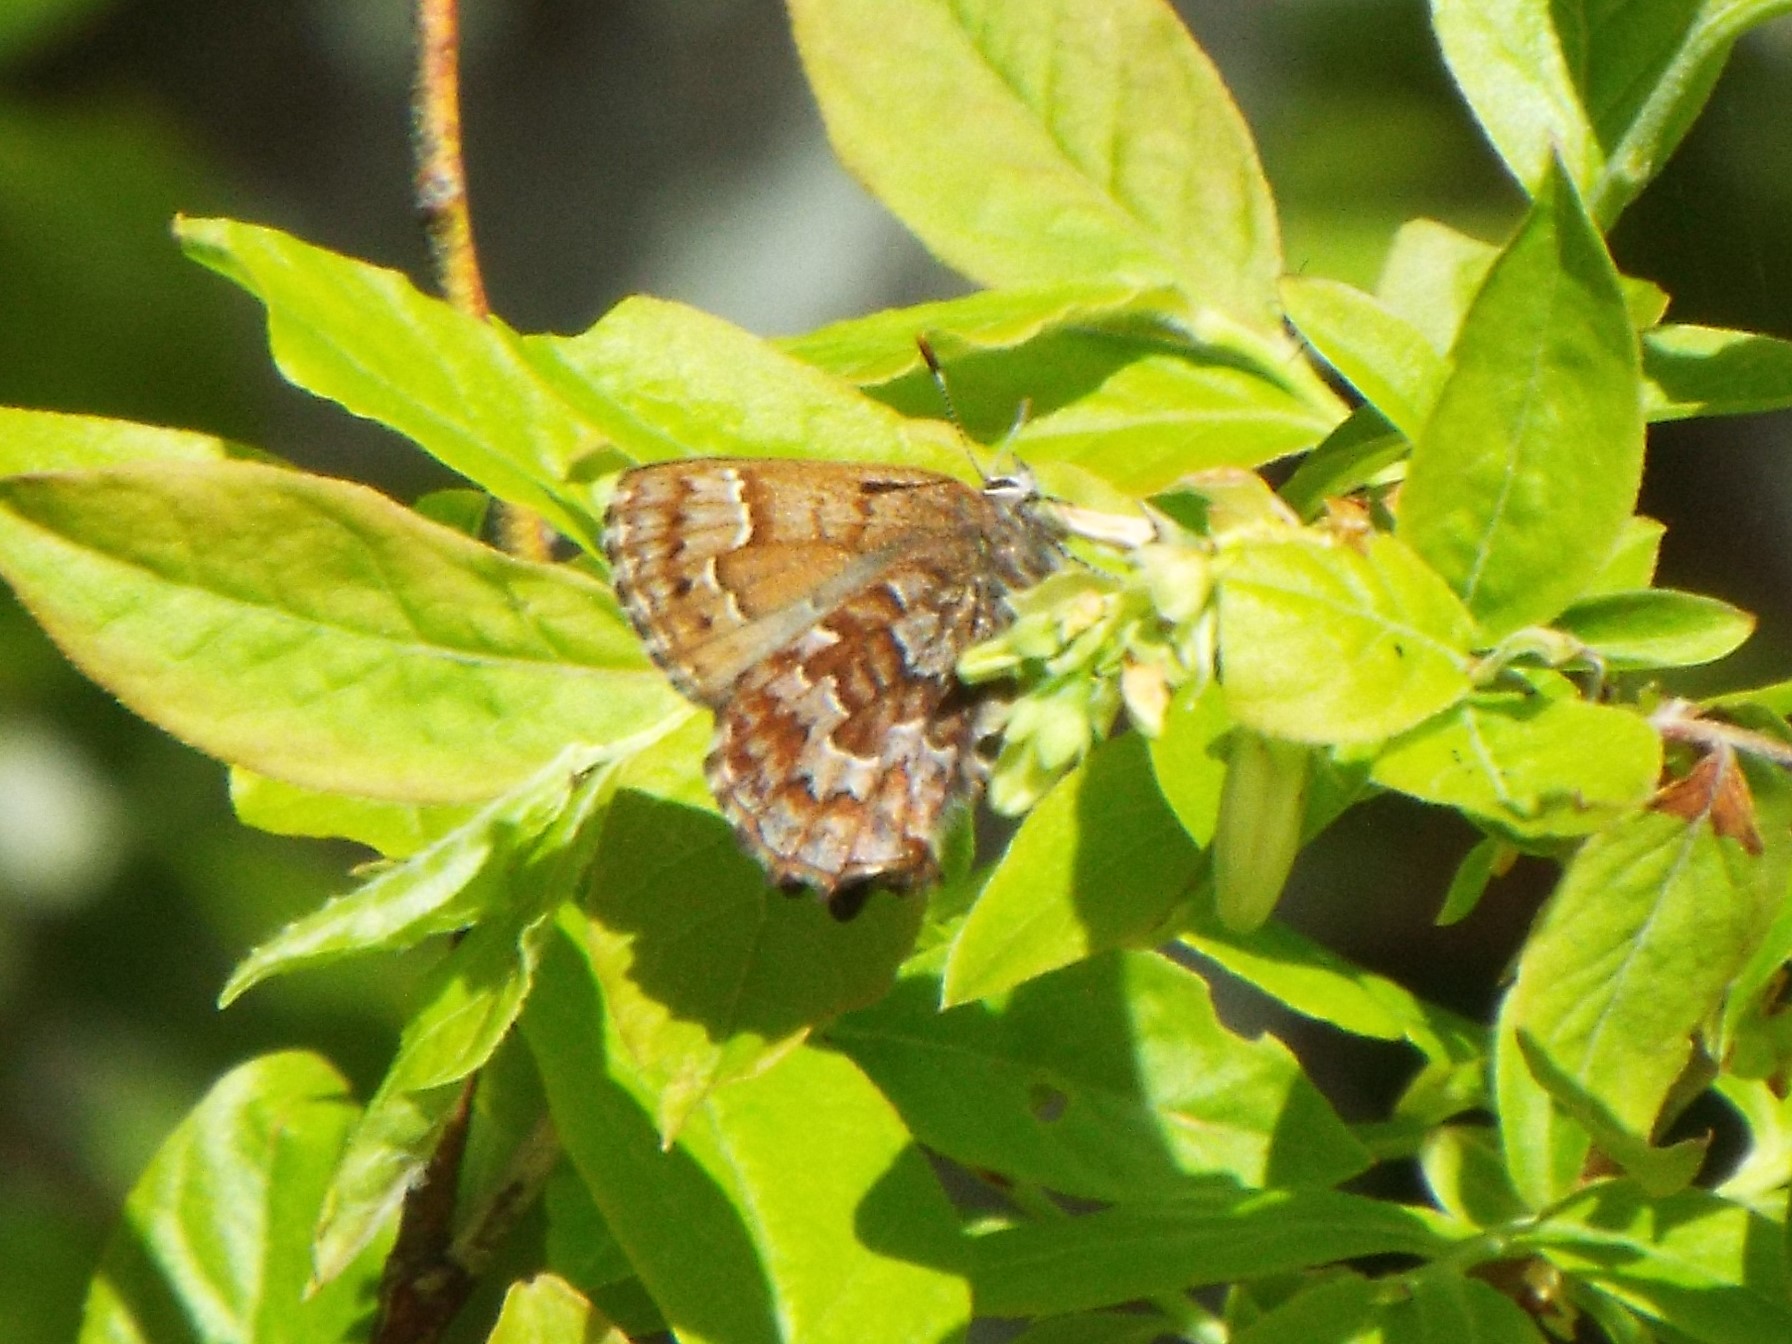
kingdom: Animalia
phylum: Arthropoda
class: Insecta
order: Lepidoptera
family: Lycaenidae
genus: Incisalia
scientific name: Incisalia niphon
